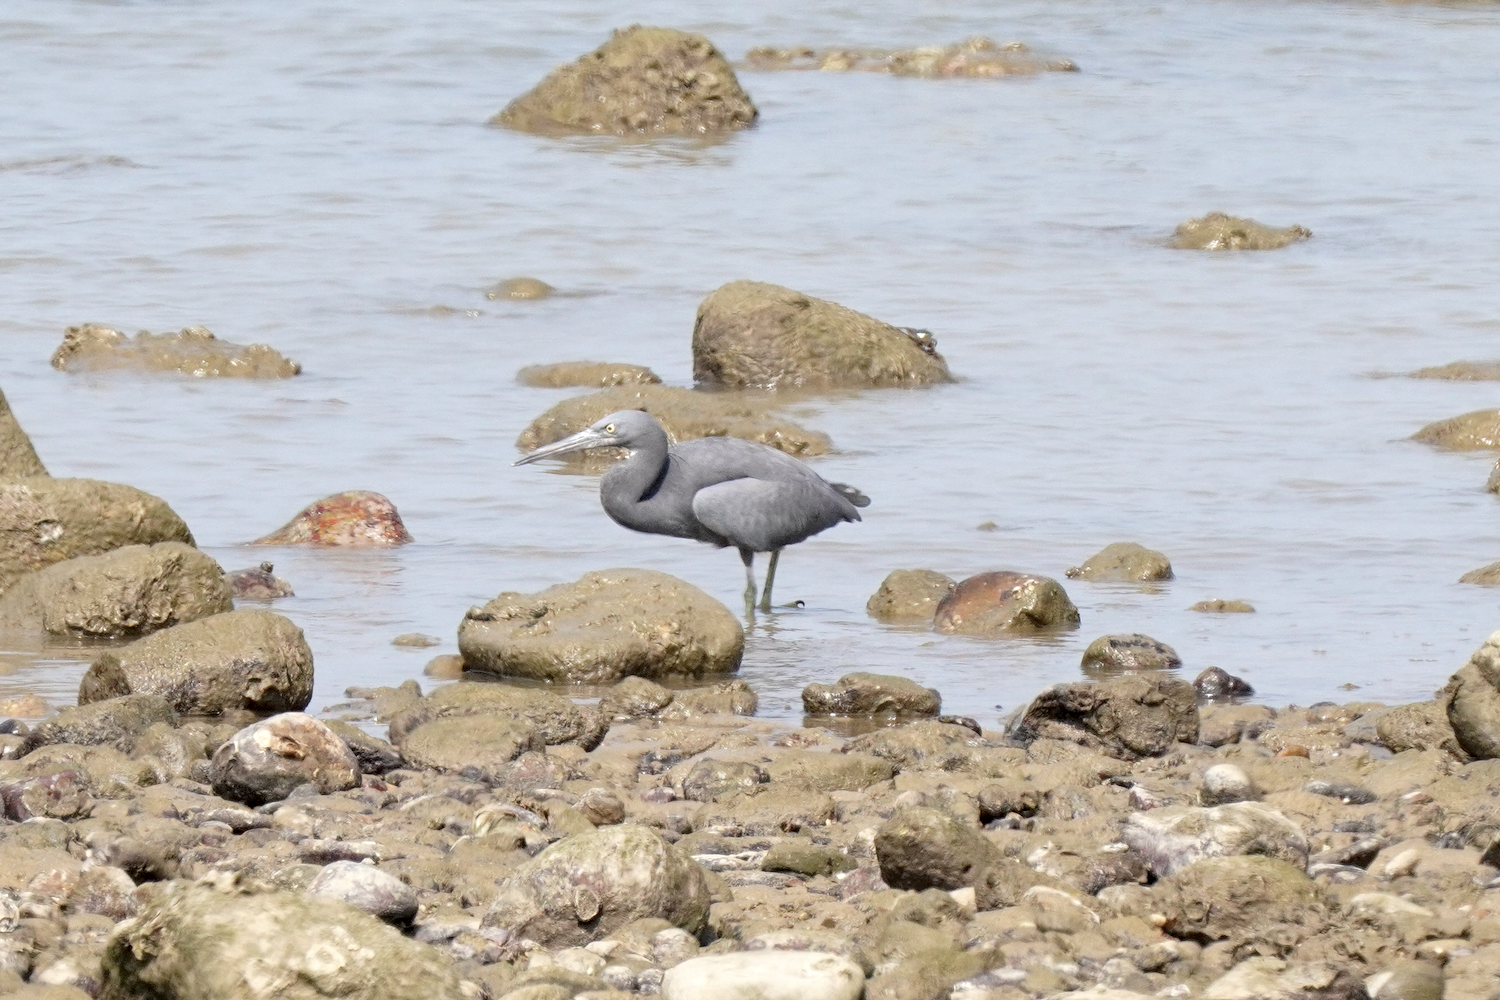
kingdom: Animalia
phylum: Chordata
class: Aves
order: Pelecaniformes
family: Ardeidae
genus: Egretta
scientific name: Egretta sacra
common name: Pacific reef heron
